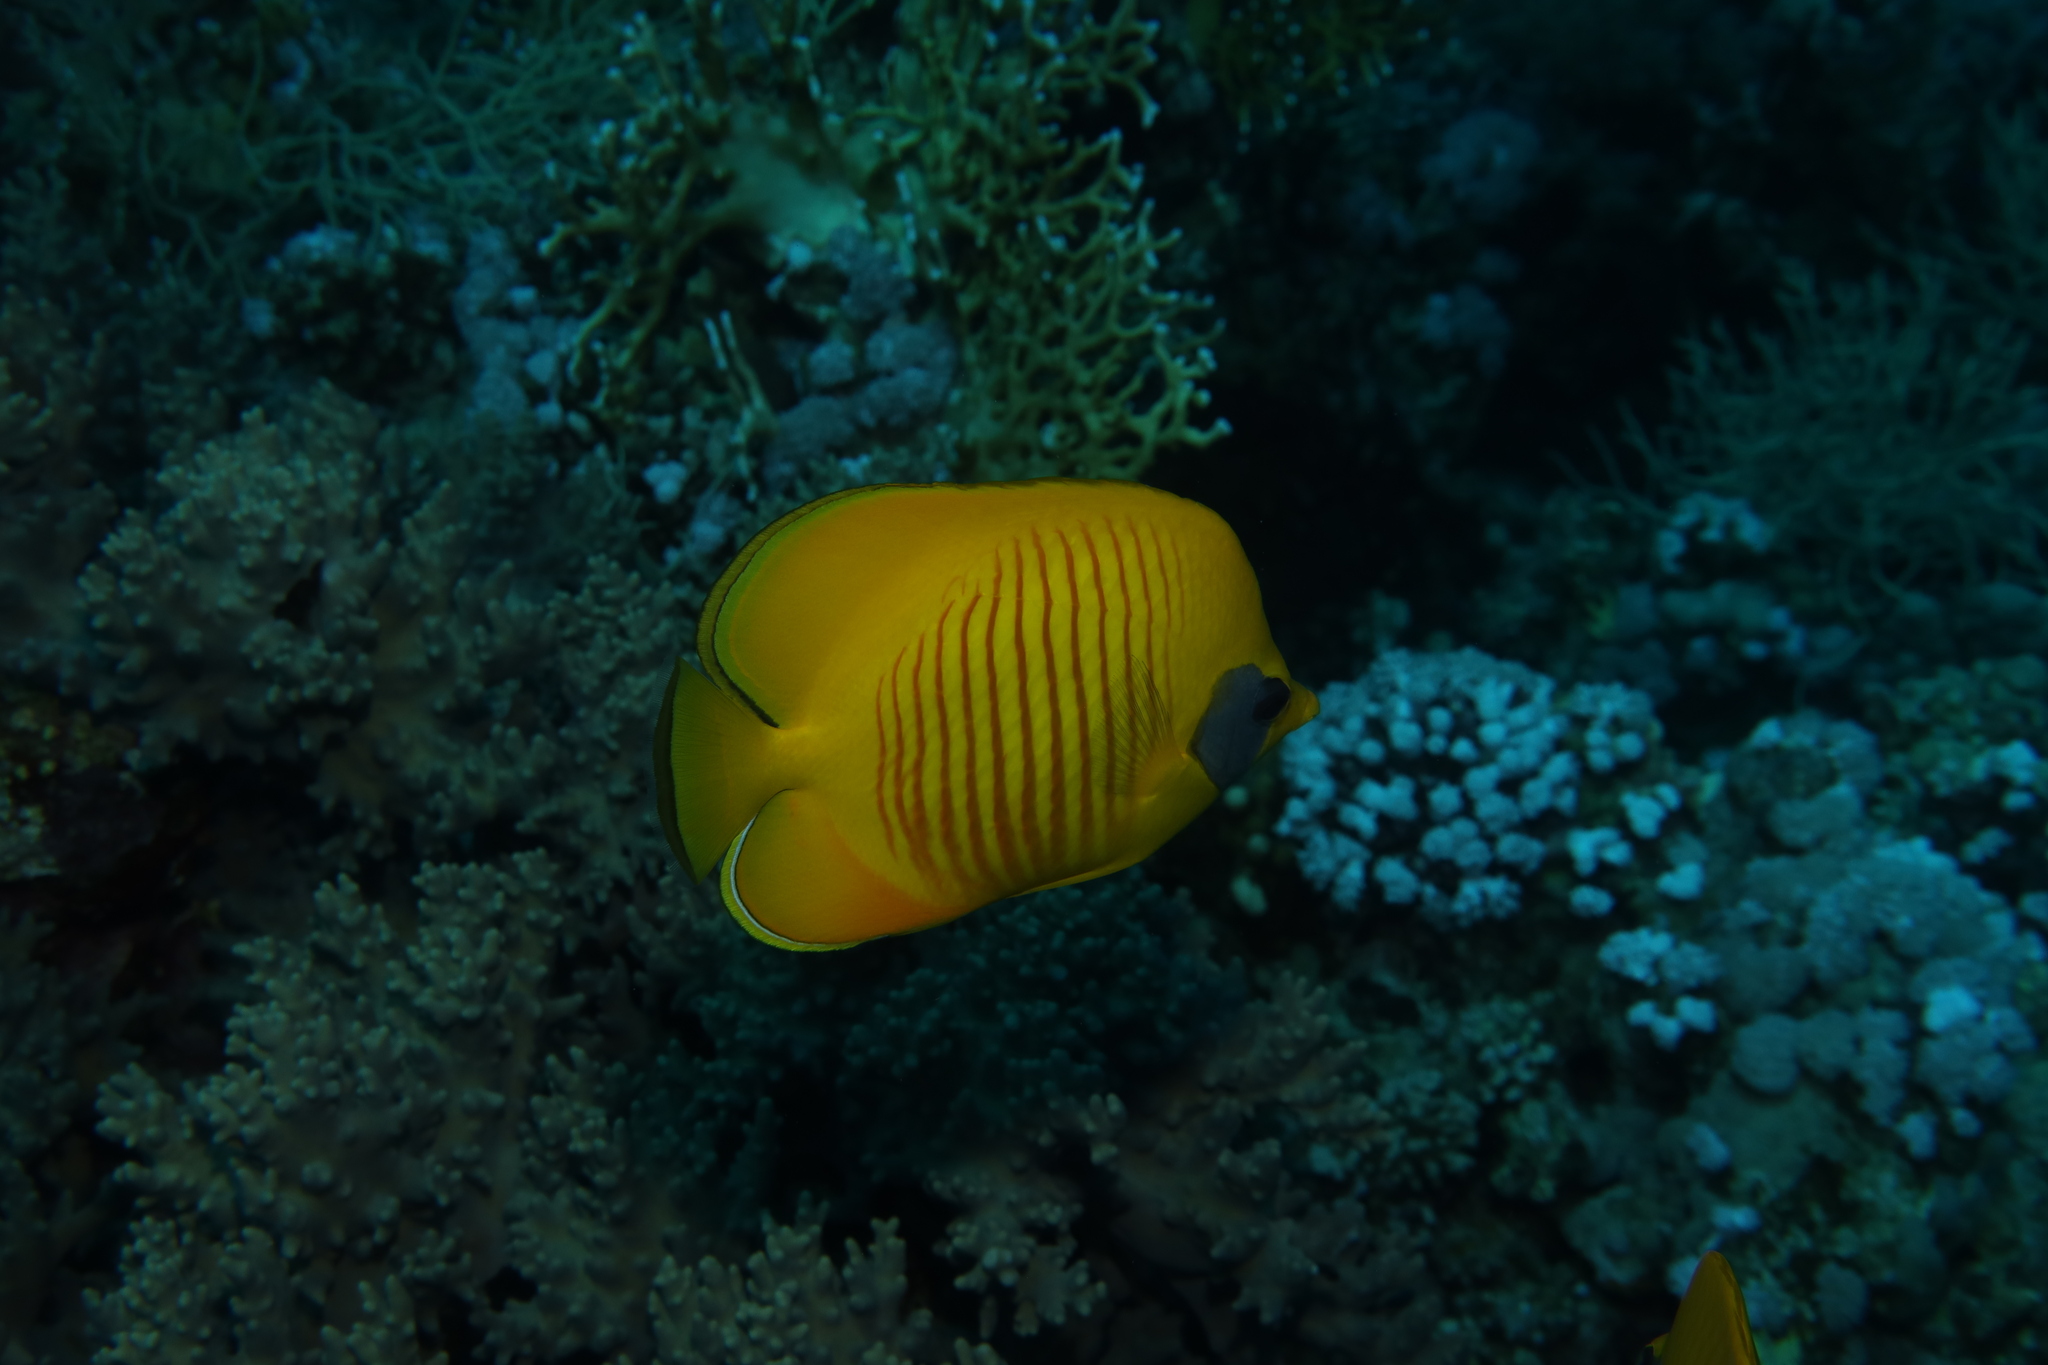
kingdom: Animalia
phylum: Chordata
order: Perciformes
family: Chaetodontidae
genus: Chaetodon
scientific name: Chaetodon semilarvatus
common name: Golden butterflyfish
